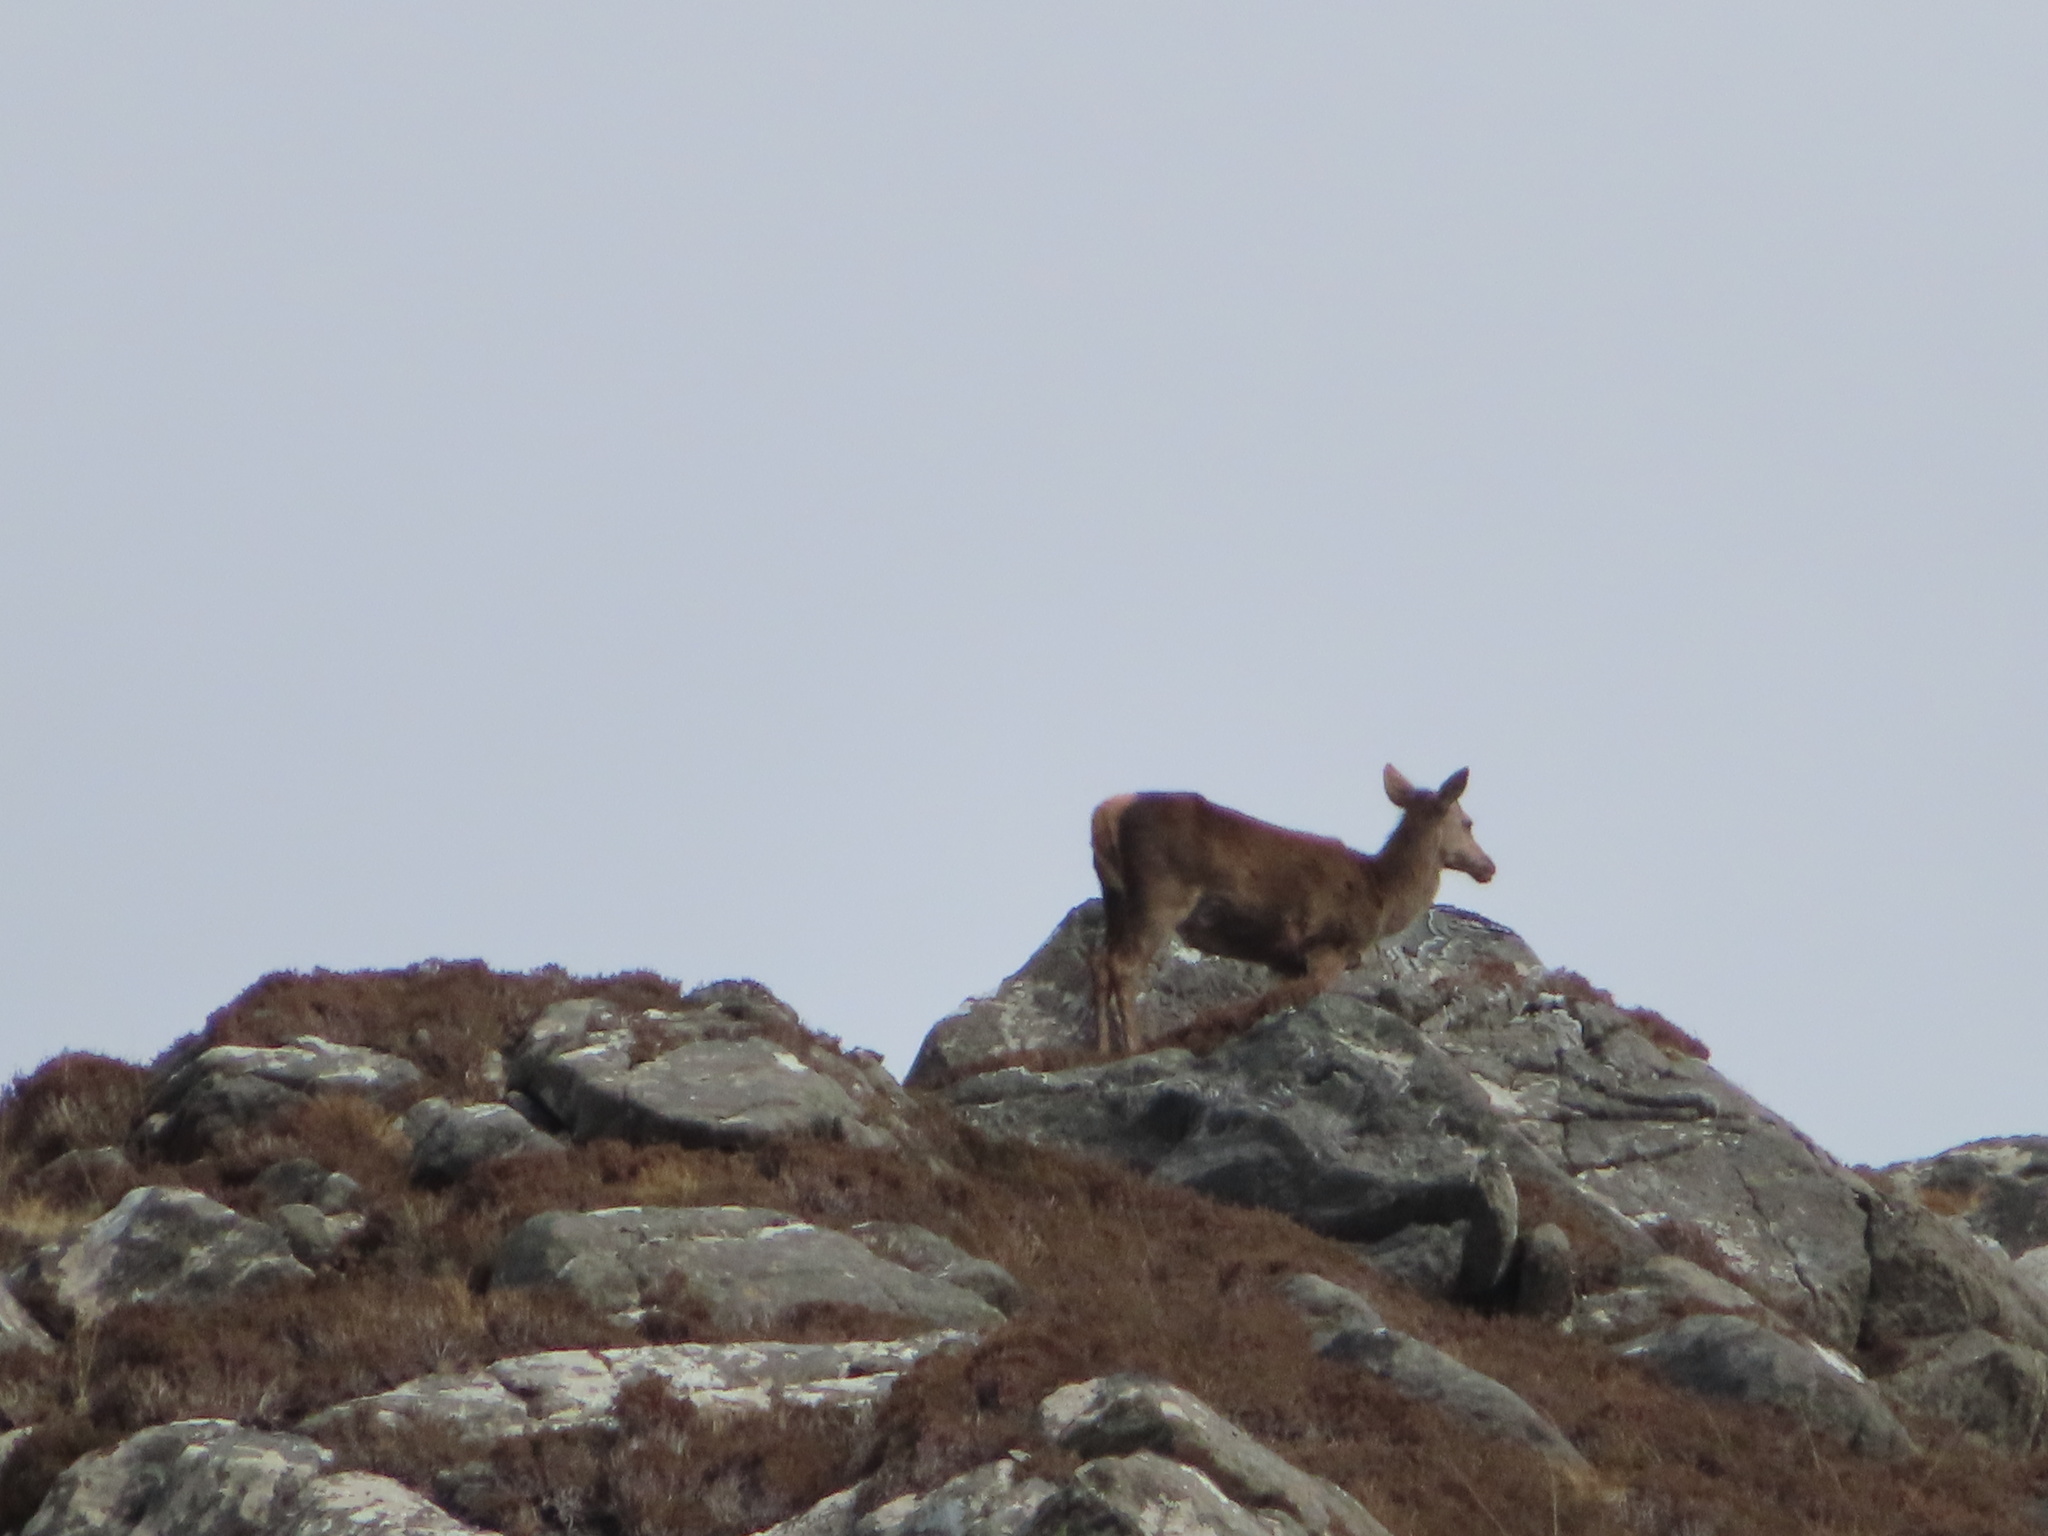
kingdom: Animalia
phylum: Chordata
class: Mammalia
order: Artiodactyla
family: Cervidae
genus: Cervus
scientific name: Cervus elaphus
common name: Red deer
